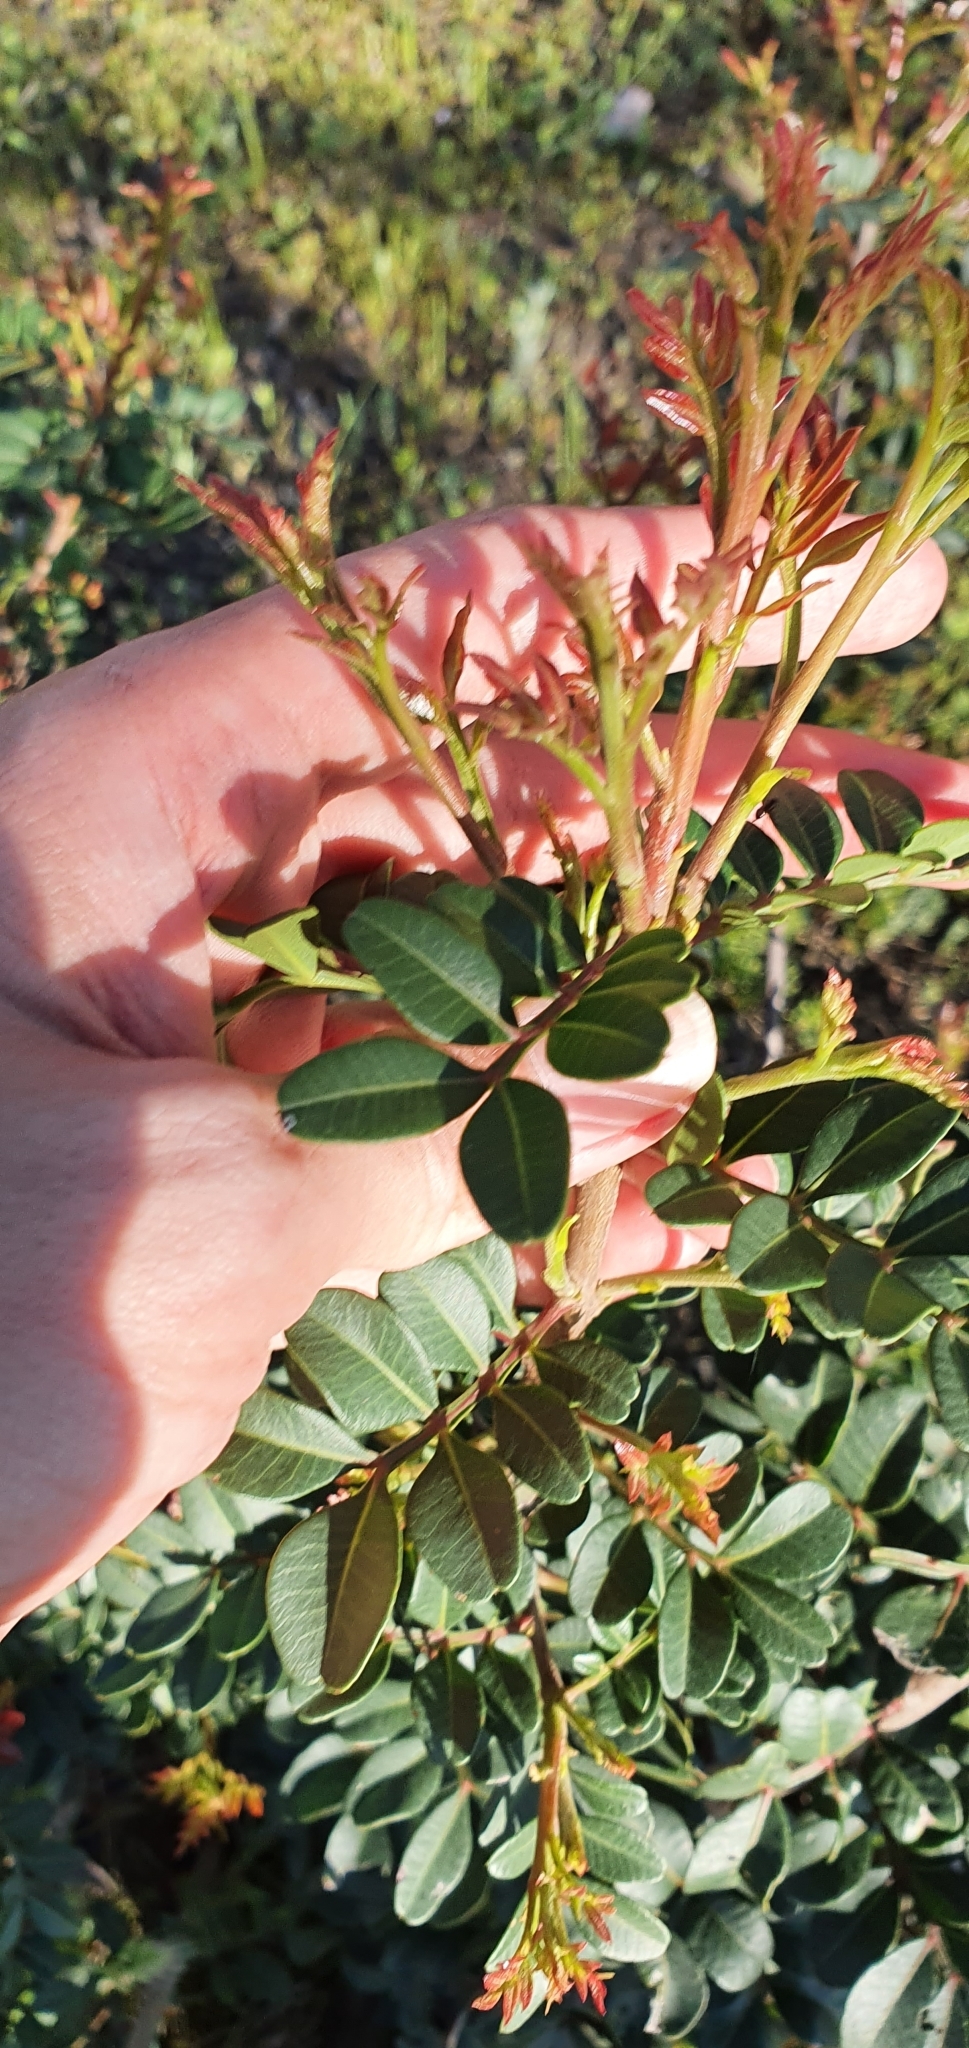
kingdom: Plantae
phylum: Tracheophyta
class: Magnoliopsida
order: Sapindales
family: Anacardiaceae
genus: Pistacia
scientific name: Pistacia lentiscus
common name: Lentisk
